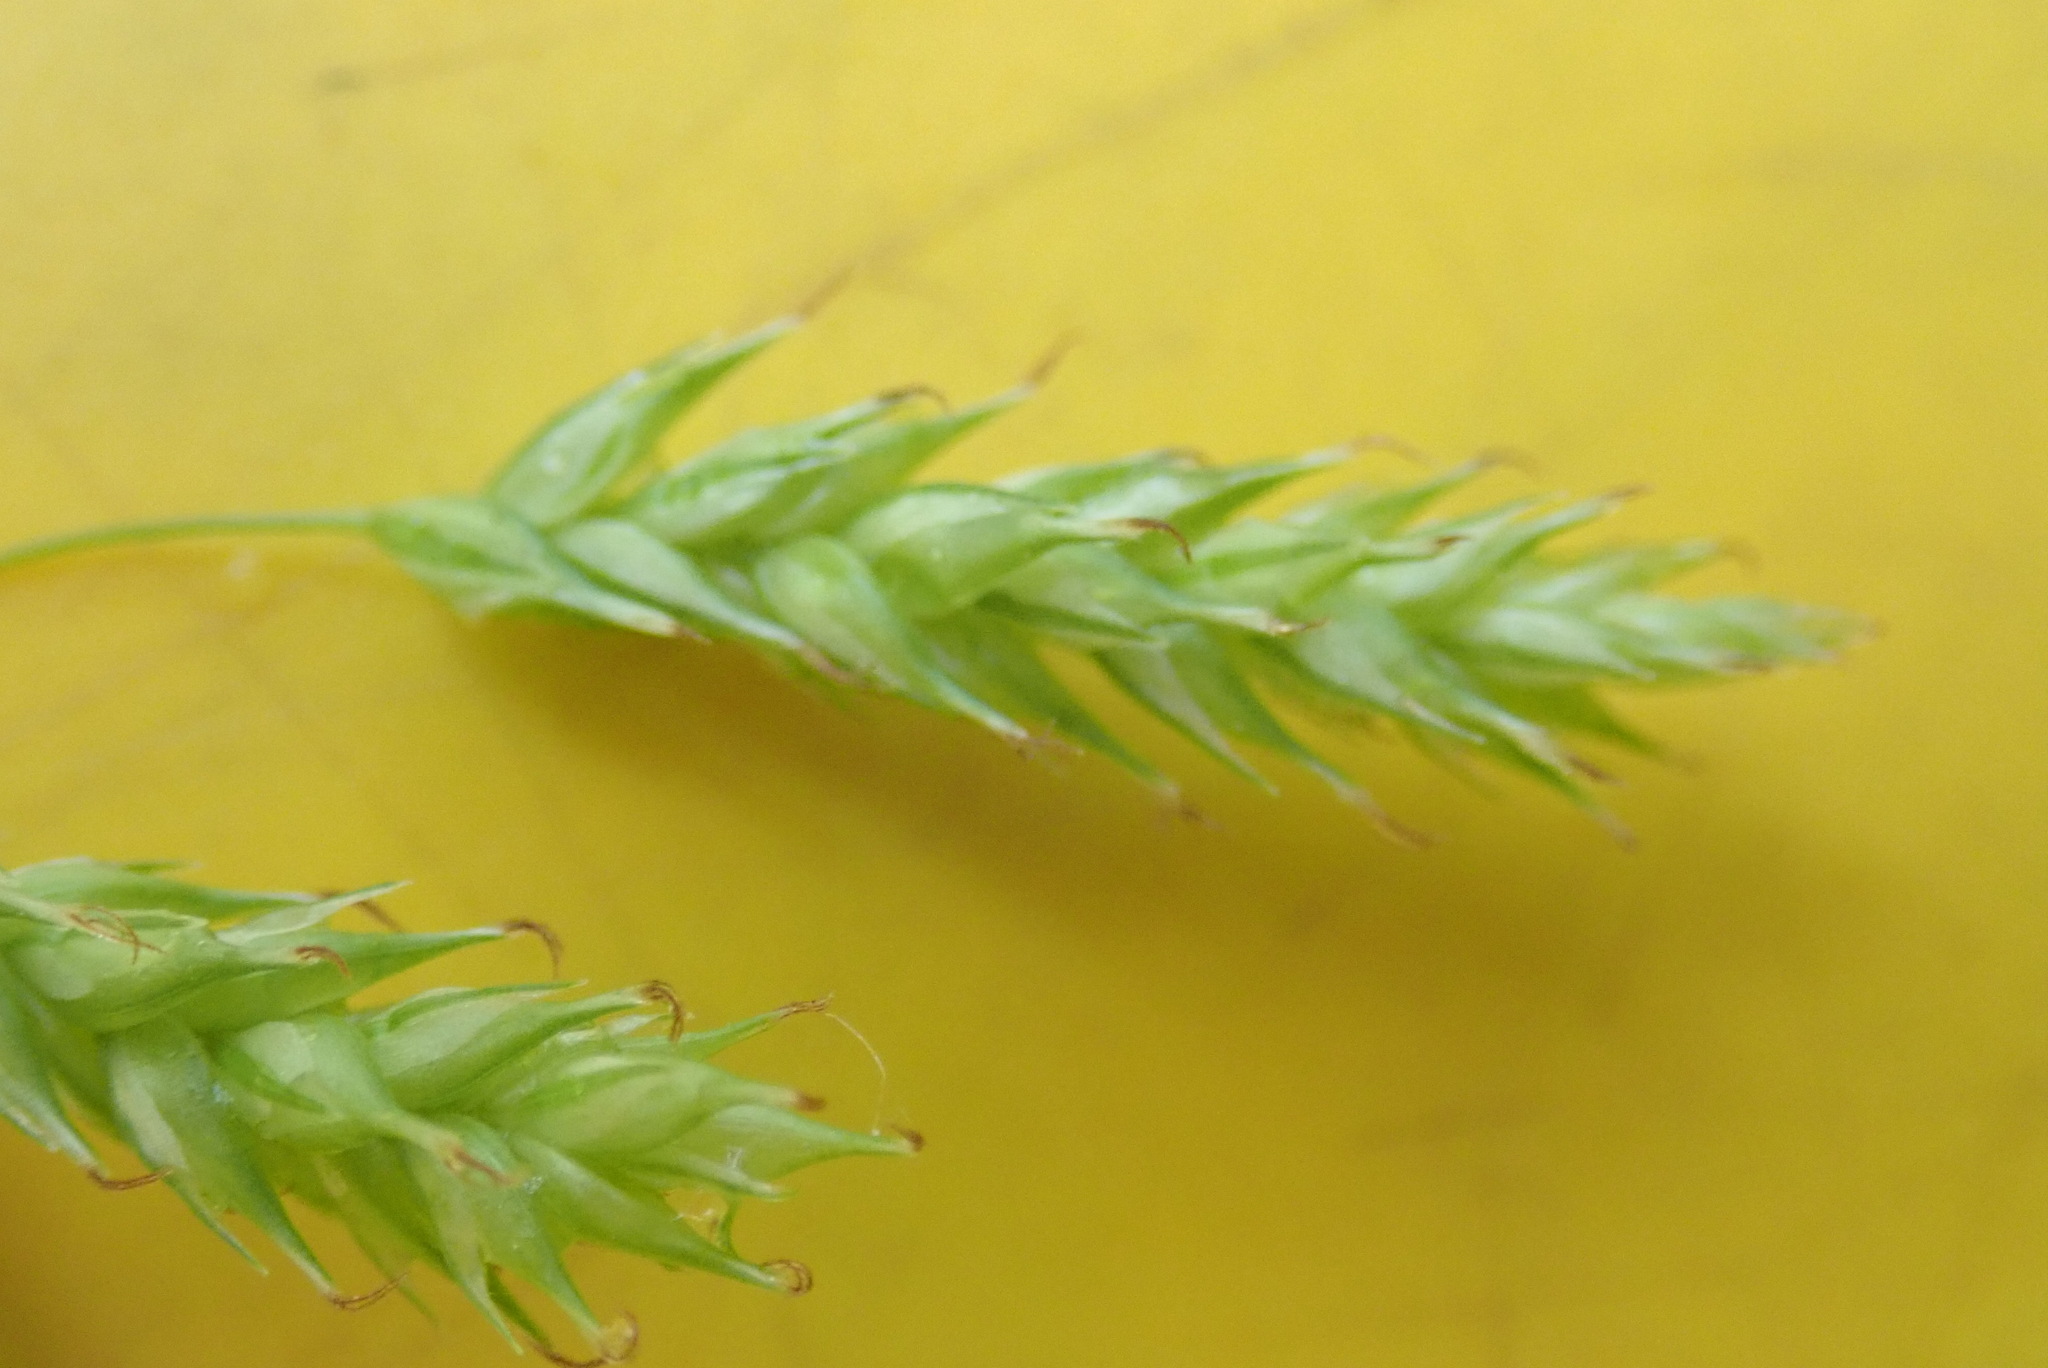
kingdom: Plantae
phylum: Tracheophyta
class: Liliopsida
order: Poales
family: Cyperaceae
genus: Carex
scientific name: Carex castanea
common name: Chestnut sedge
